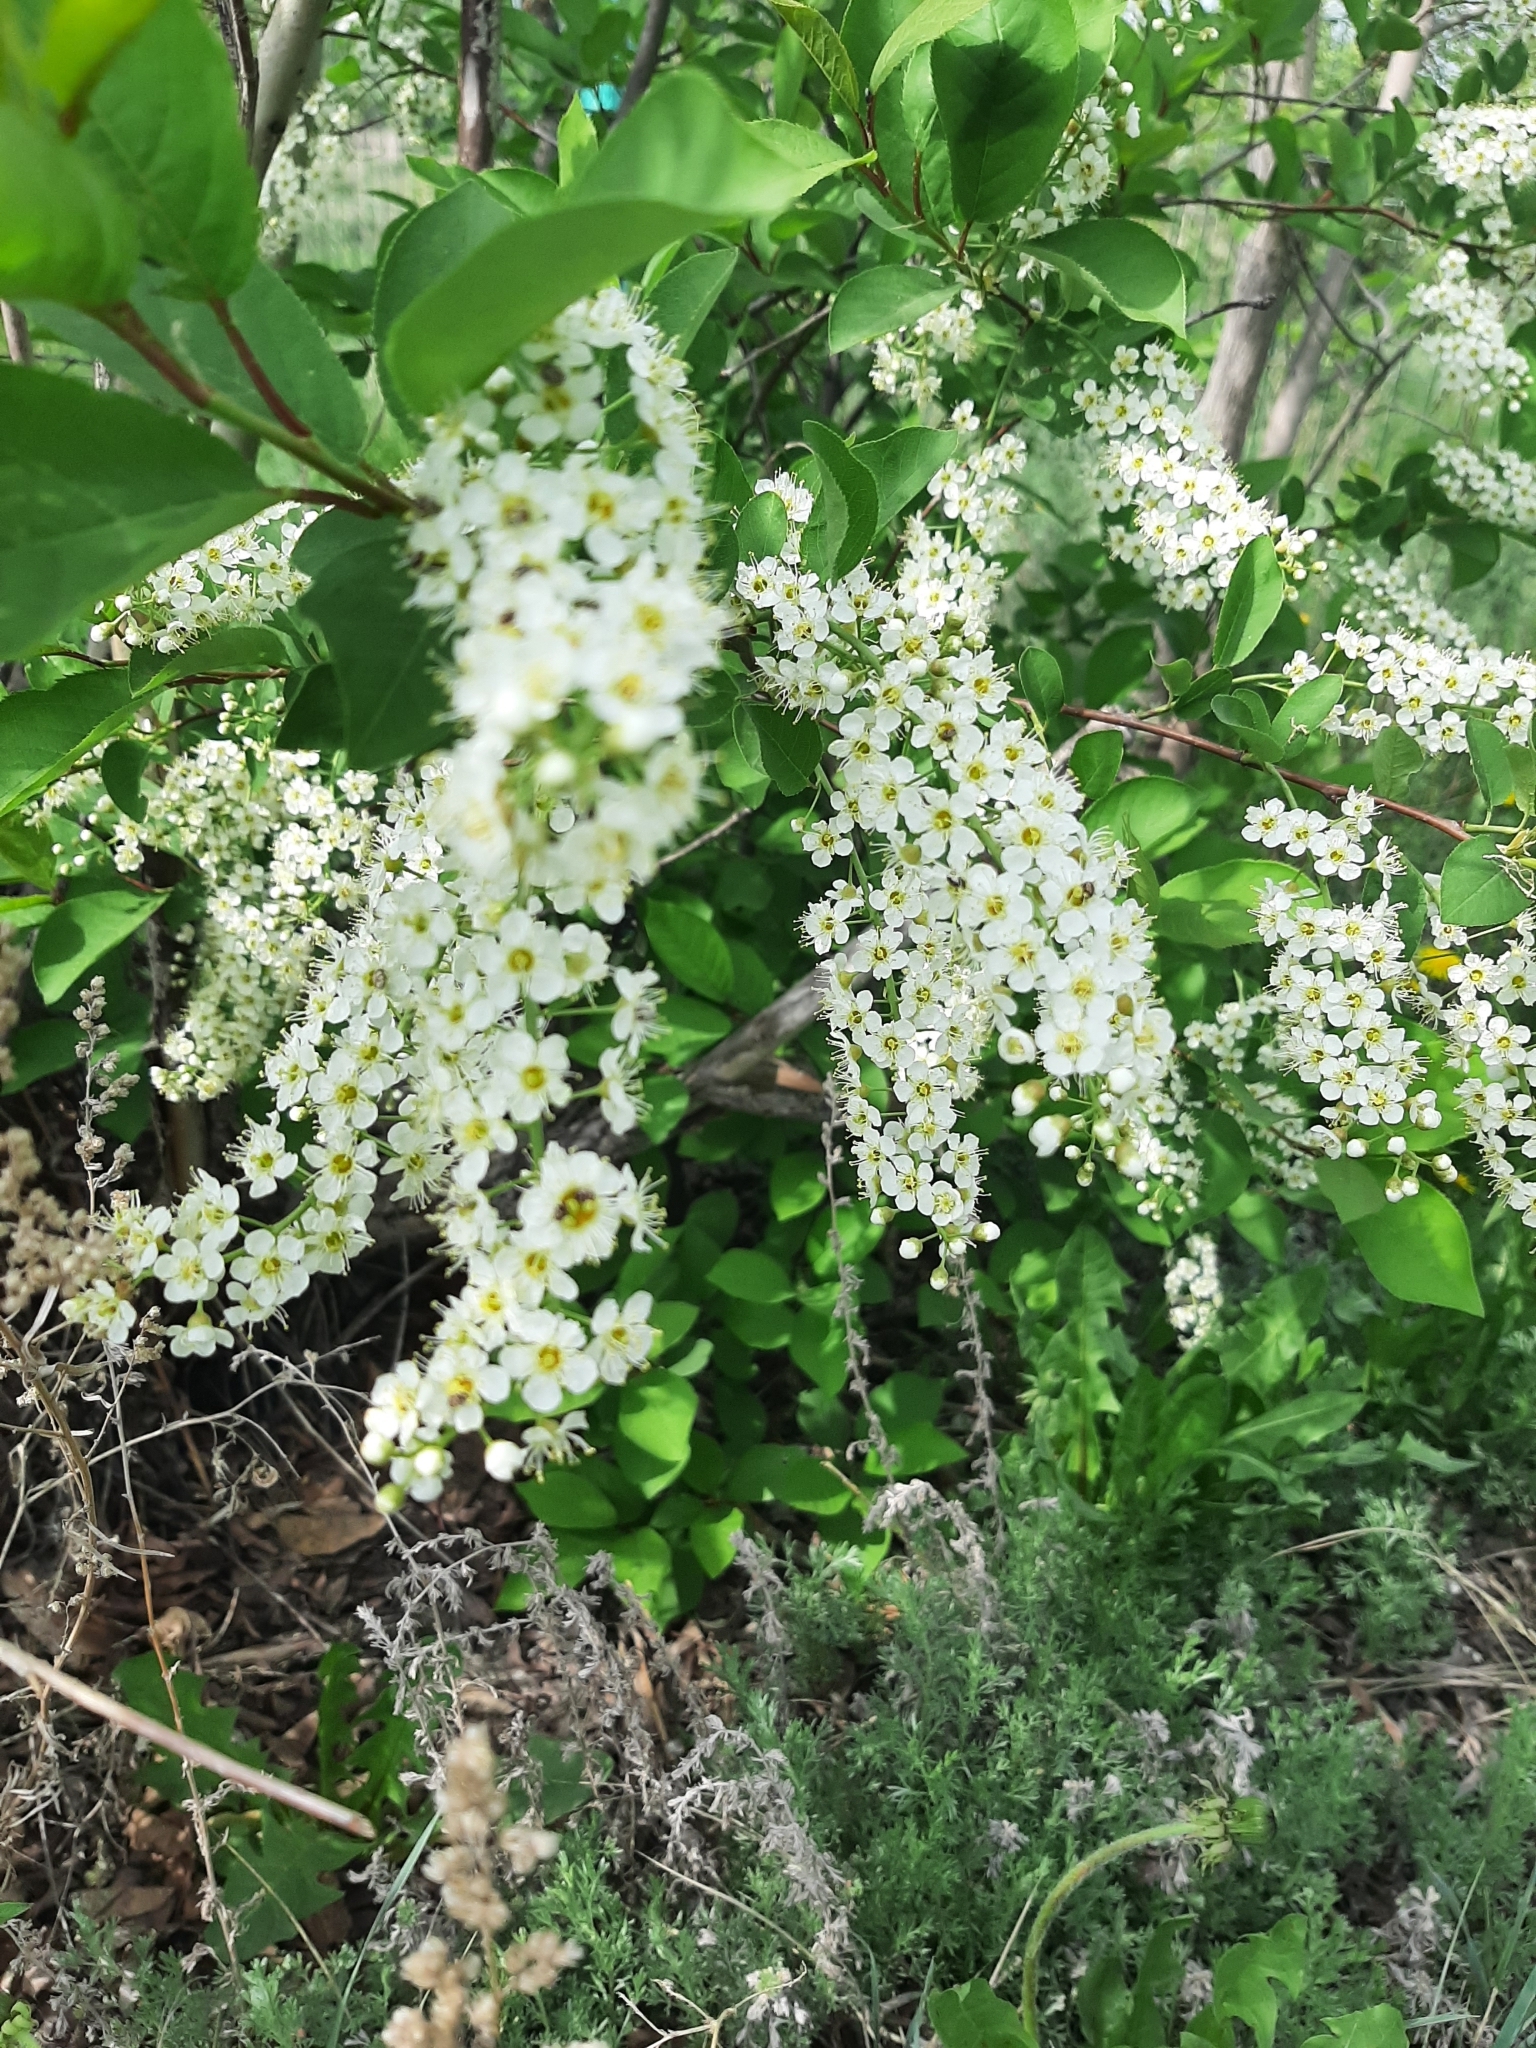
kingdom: Plantae
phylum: Tracheophyta
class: Magnoliopsida
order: Rosales
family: Rosaceae
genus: Prunus
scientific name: Prunus padus
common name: Bird cherry
